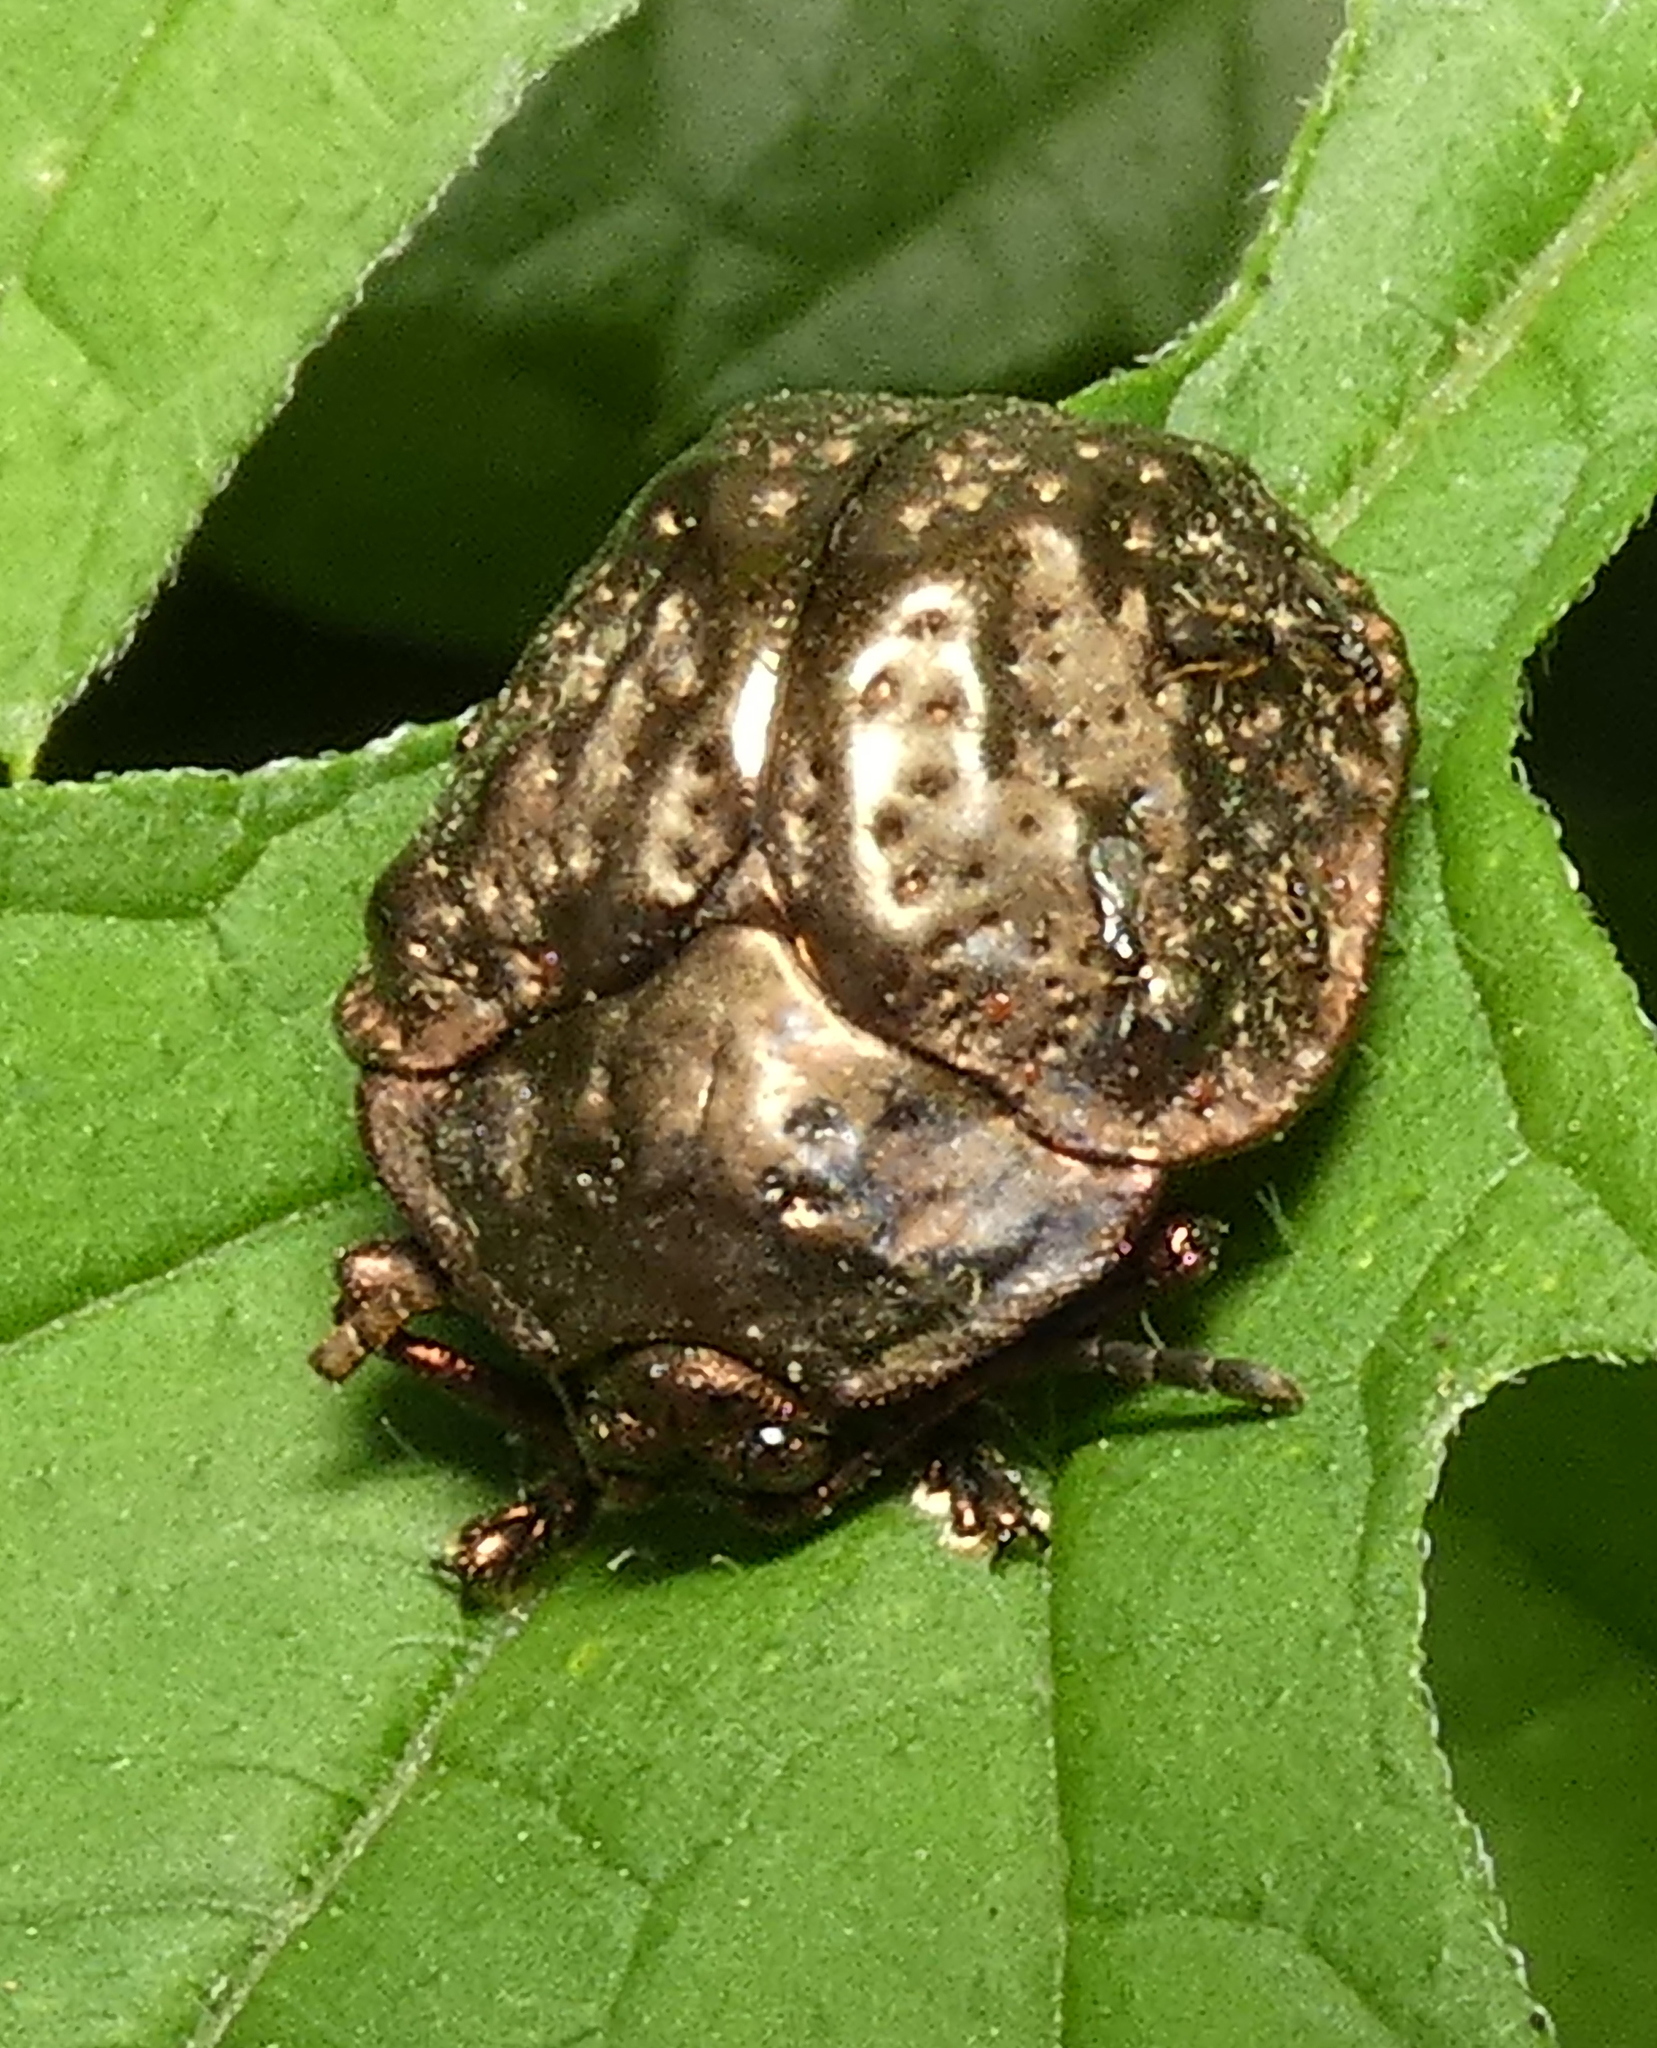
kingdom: Animalia
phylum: Arthropoda
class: Insecta
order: Coleoptera
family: Chrysomelidae
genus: Polychalca
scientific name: Polychalca aerea
